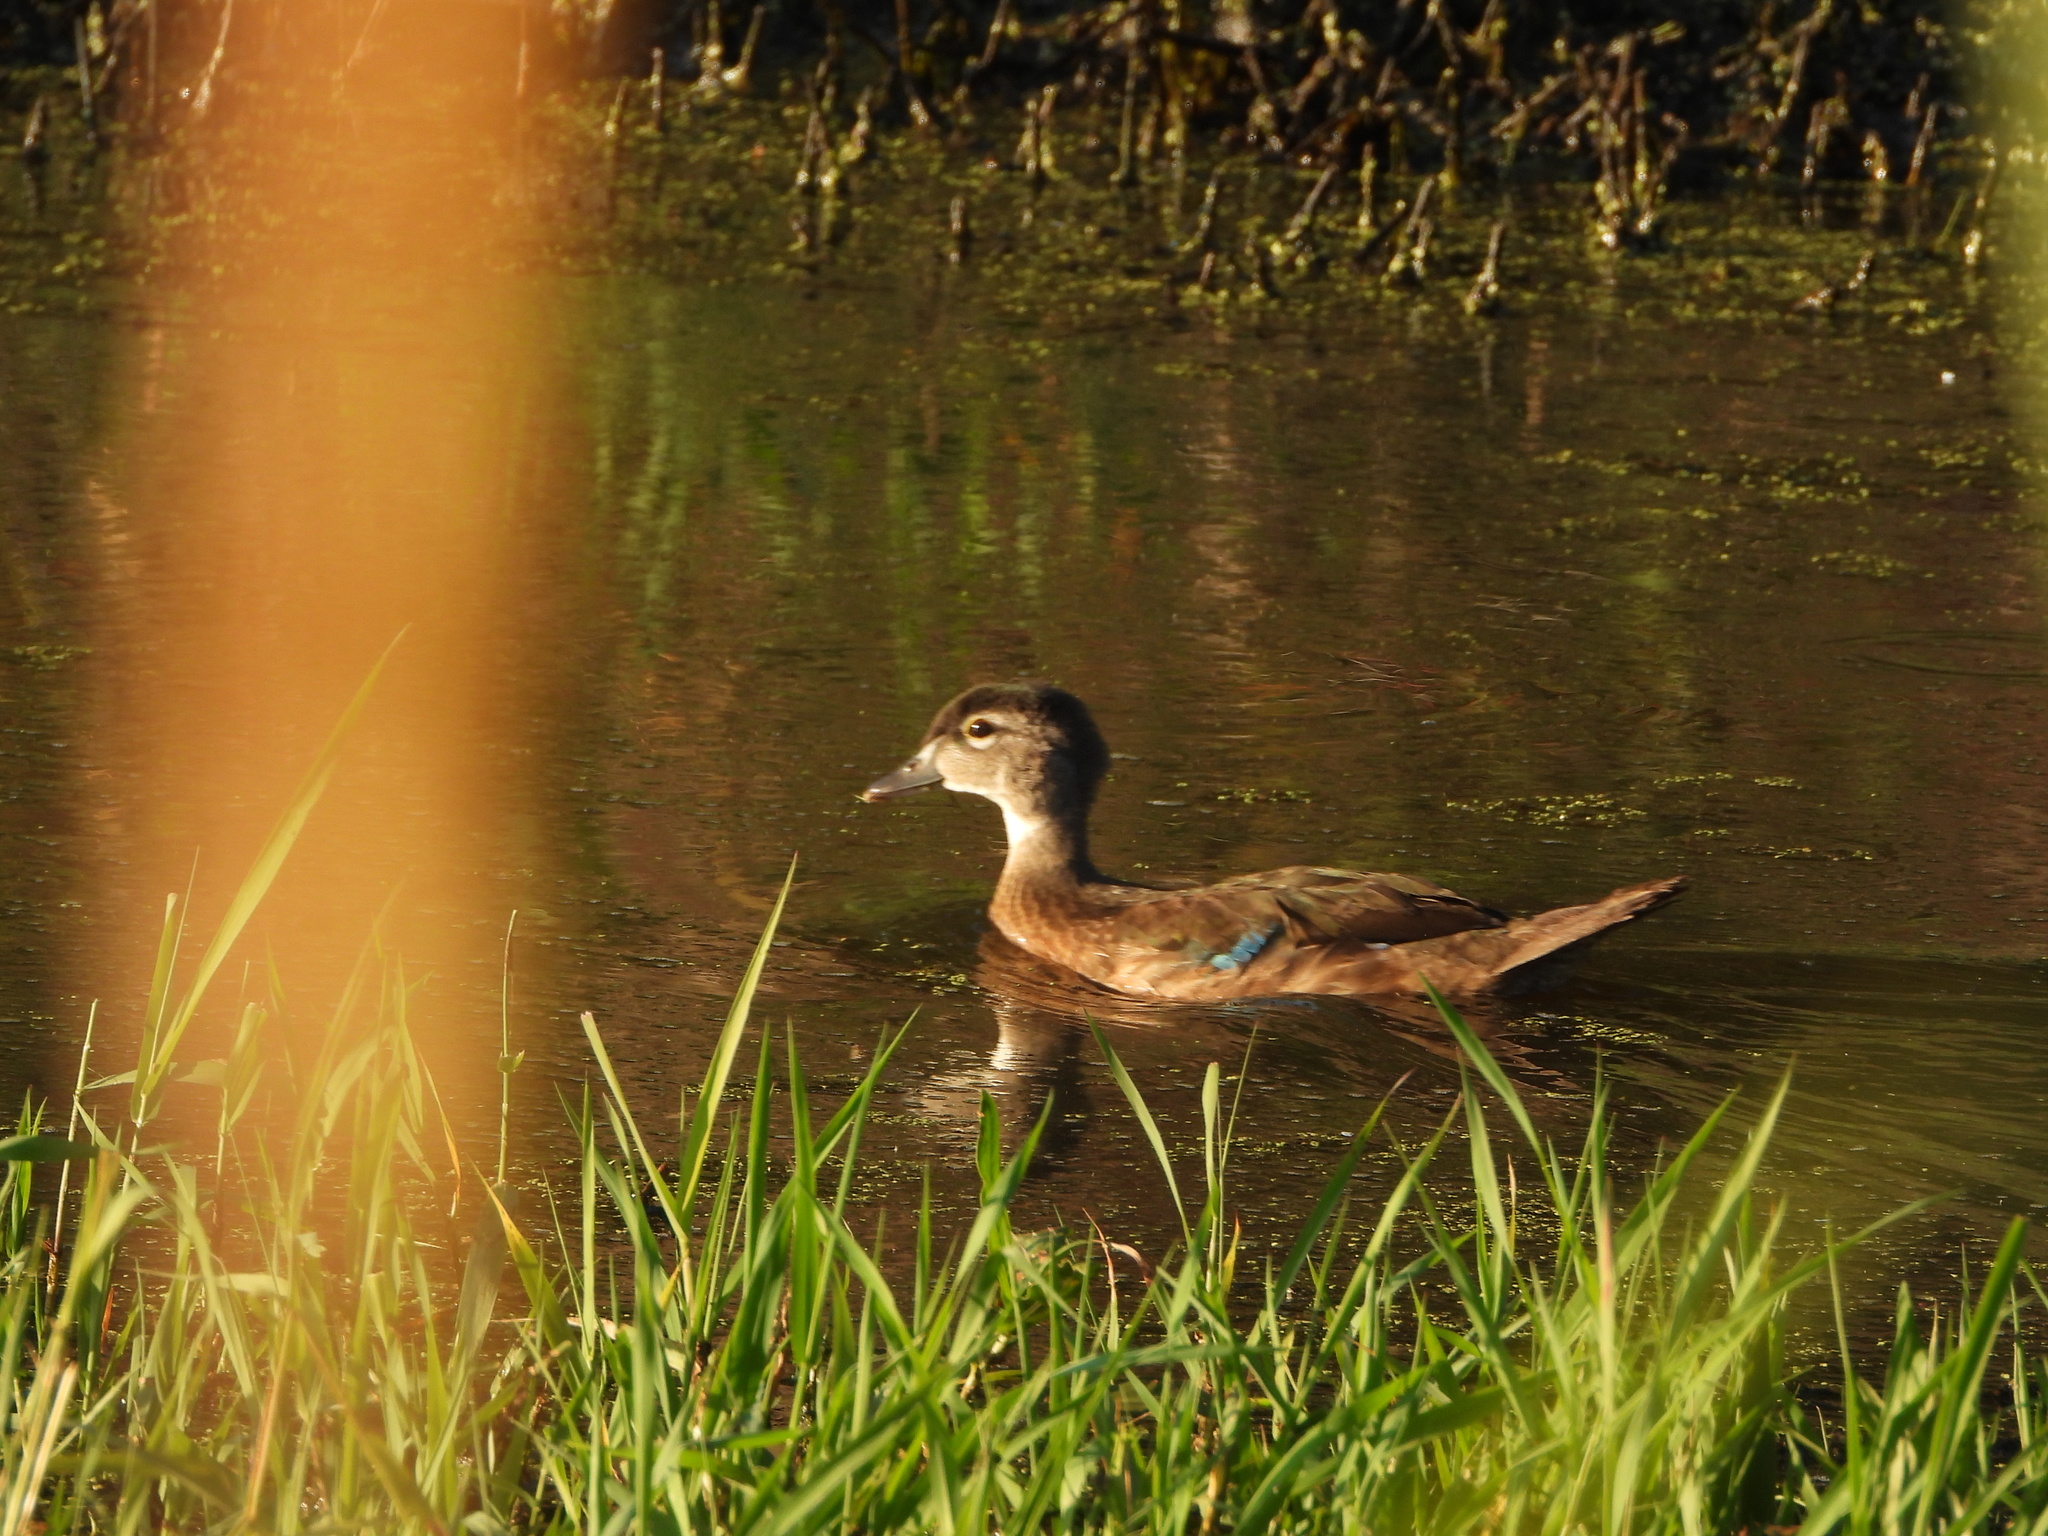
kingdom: Animalia
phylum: Chordata
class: Aves
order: Anseriformes
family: Anatidae
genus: Aix
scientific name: Aix sponsa
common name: Wood duck
